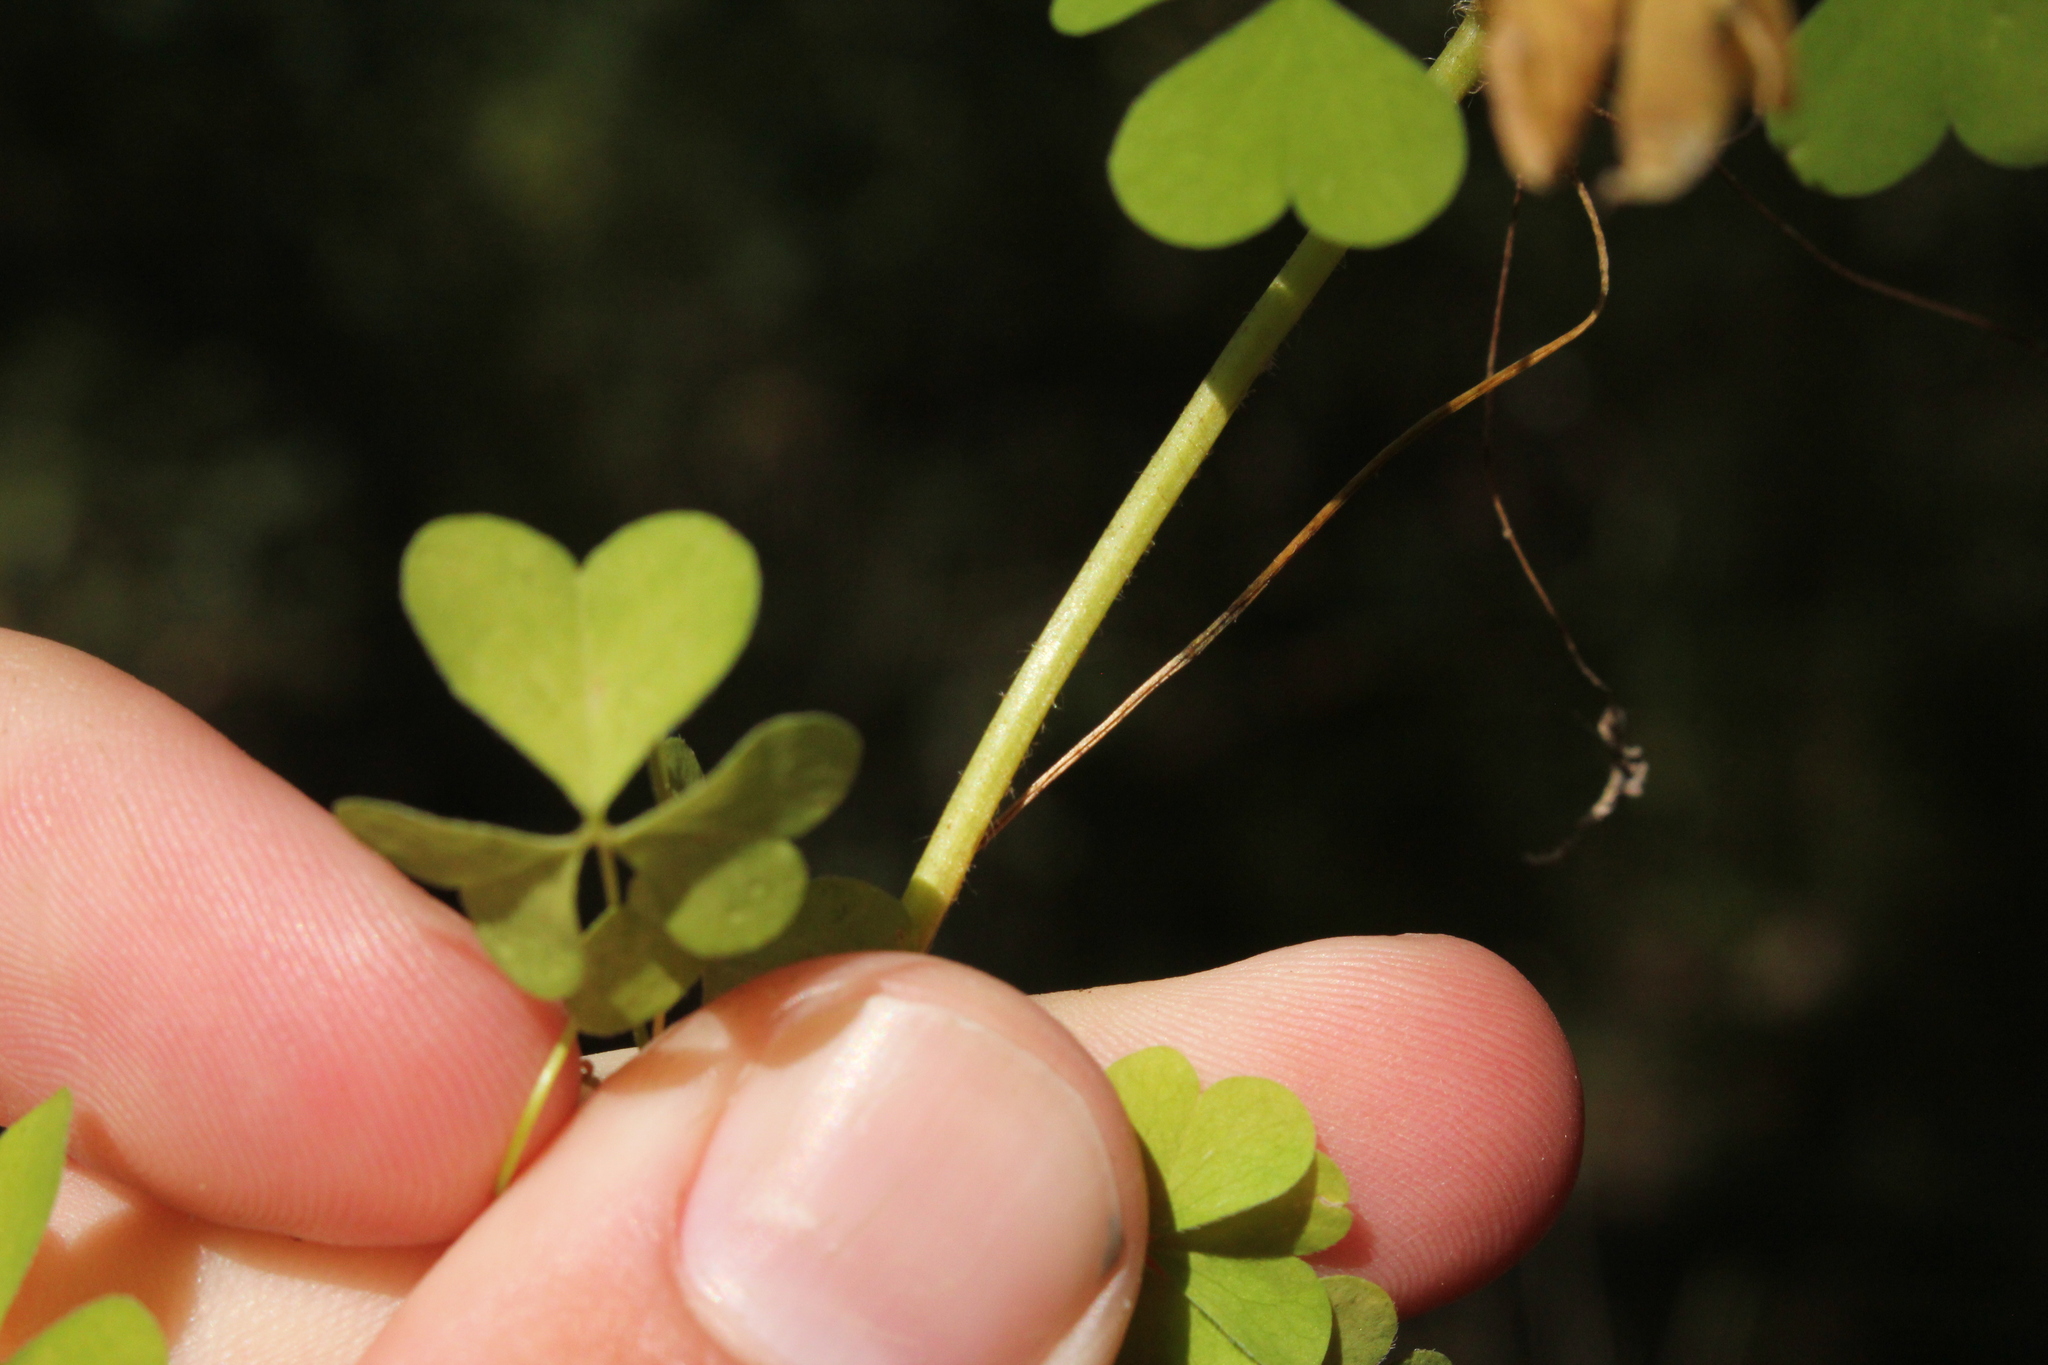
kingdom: Plantae
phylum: Tracheophyta
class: Magnoliopsida
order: Oxalidales
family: Oxalidaceae
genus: Oxalis
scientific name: Oxalis stricta
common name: Upright yellow-sorrel
